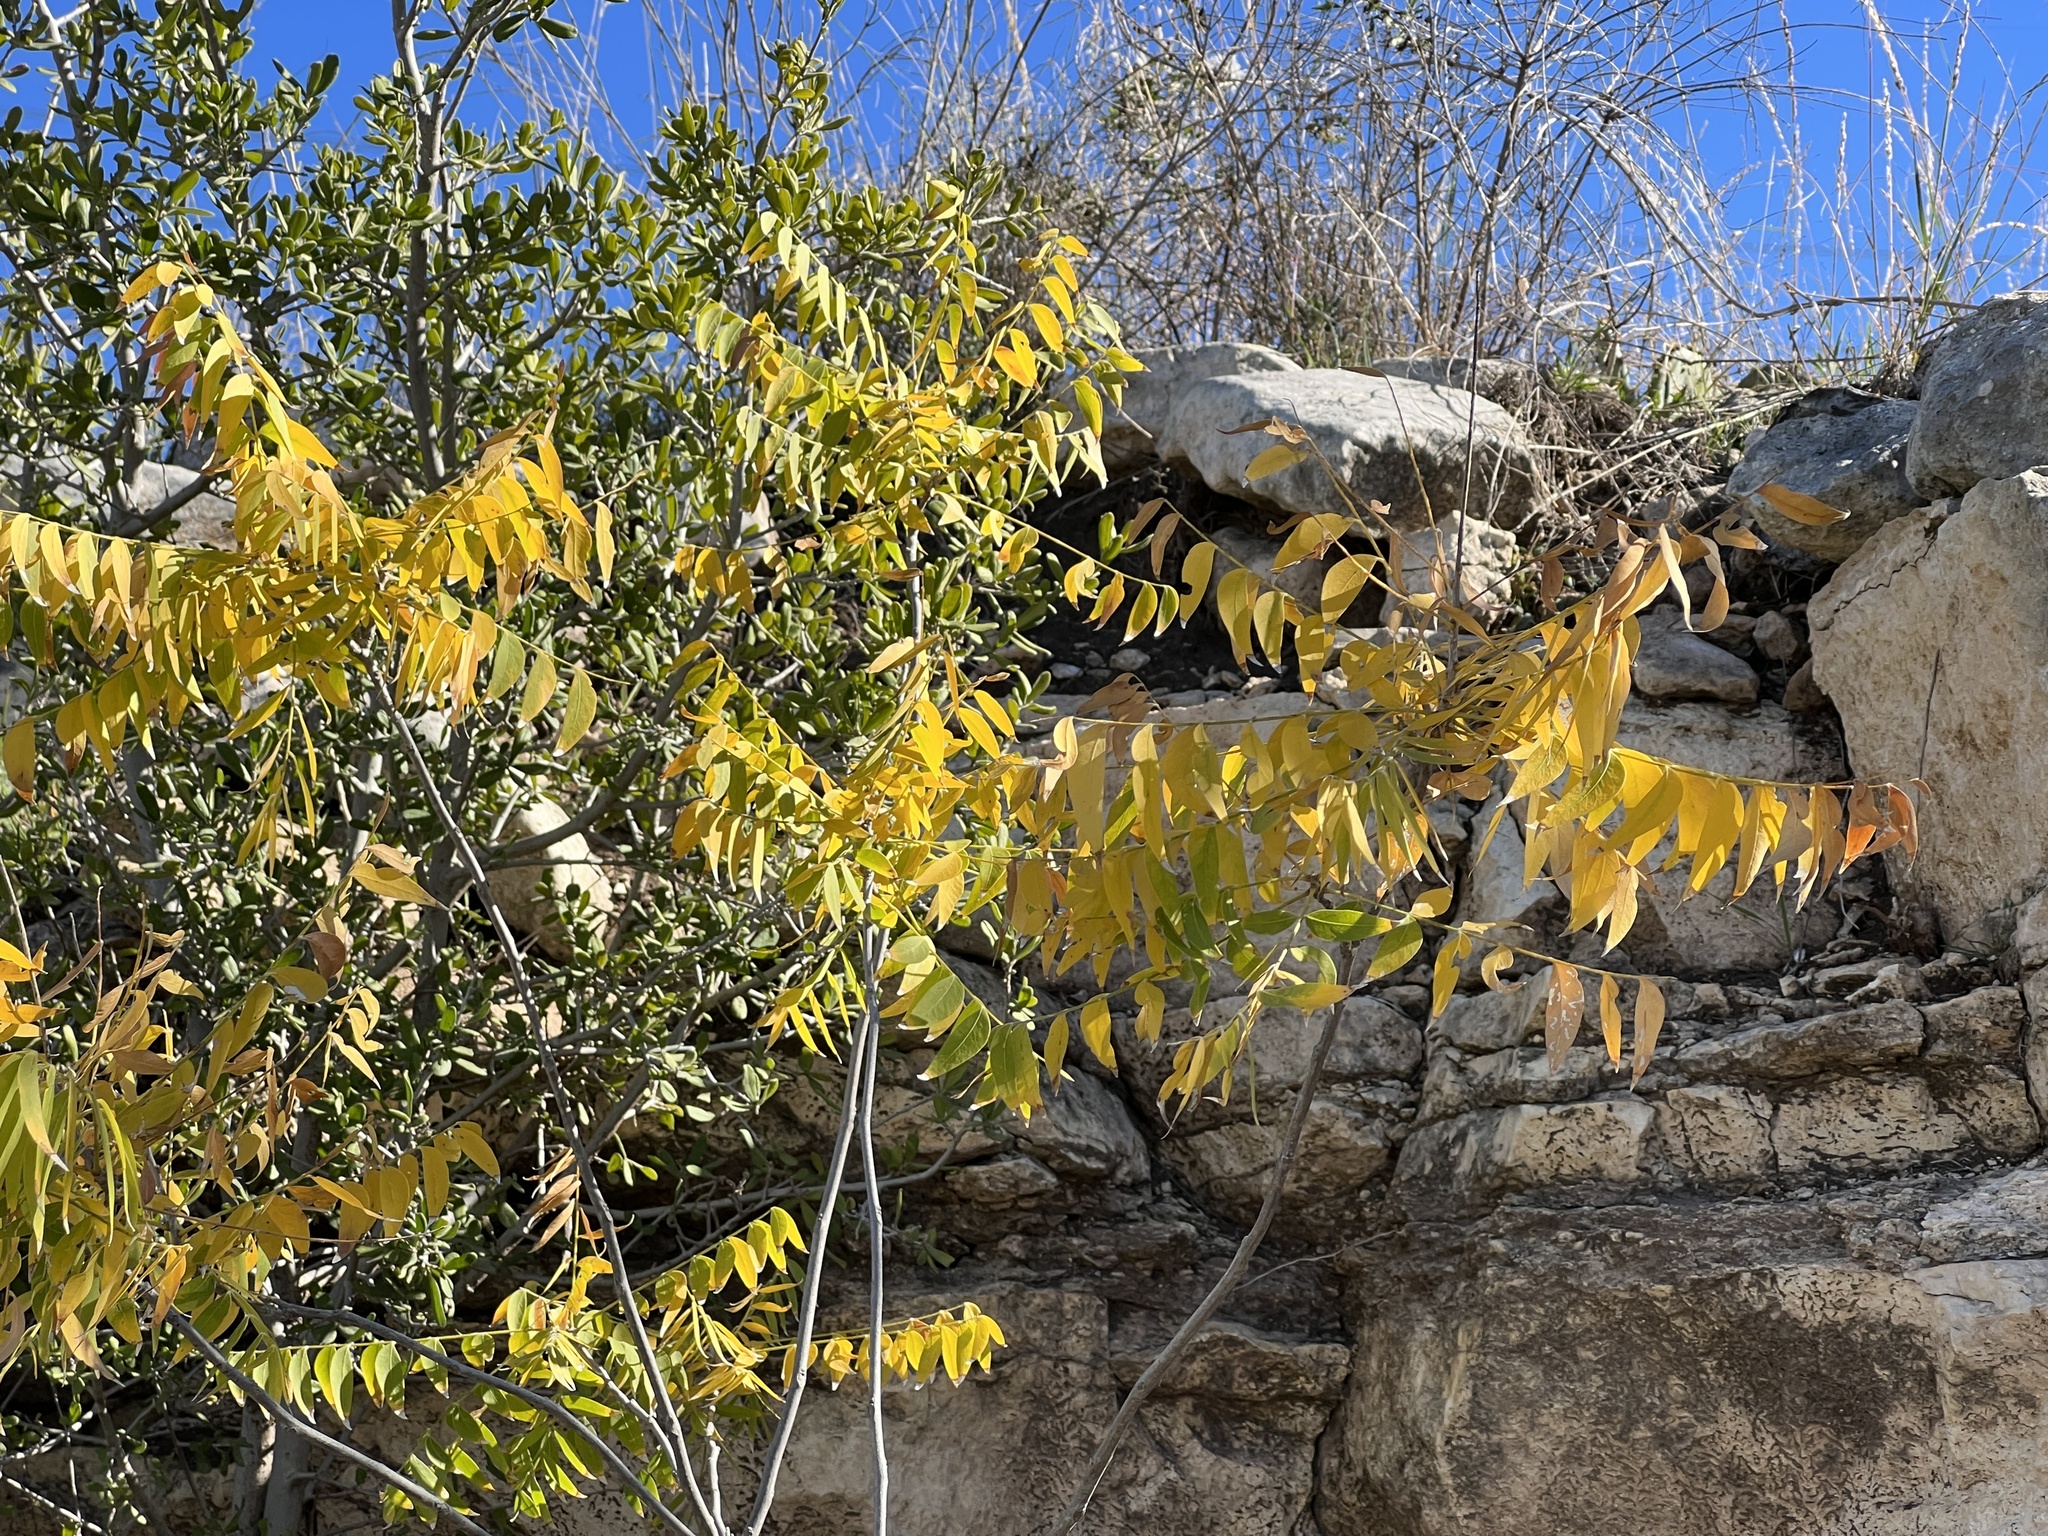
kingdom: Plantae
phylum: Tracheophyta
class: Magnoliopsida
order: Sapindales
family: Sapindaceae
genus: Sapindus
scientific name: Sapindus drummondii
